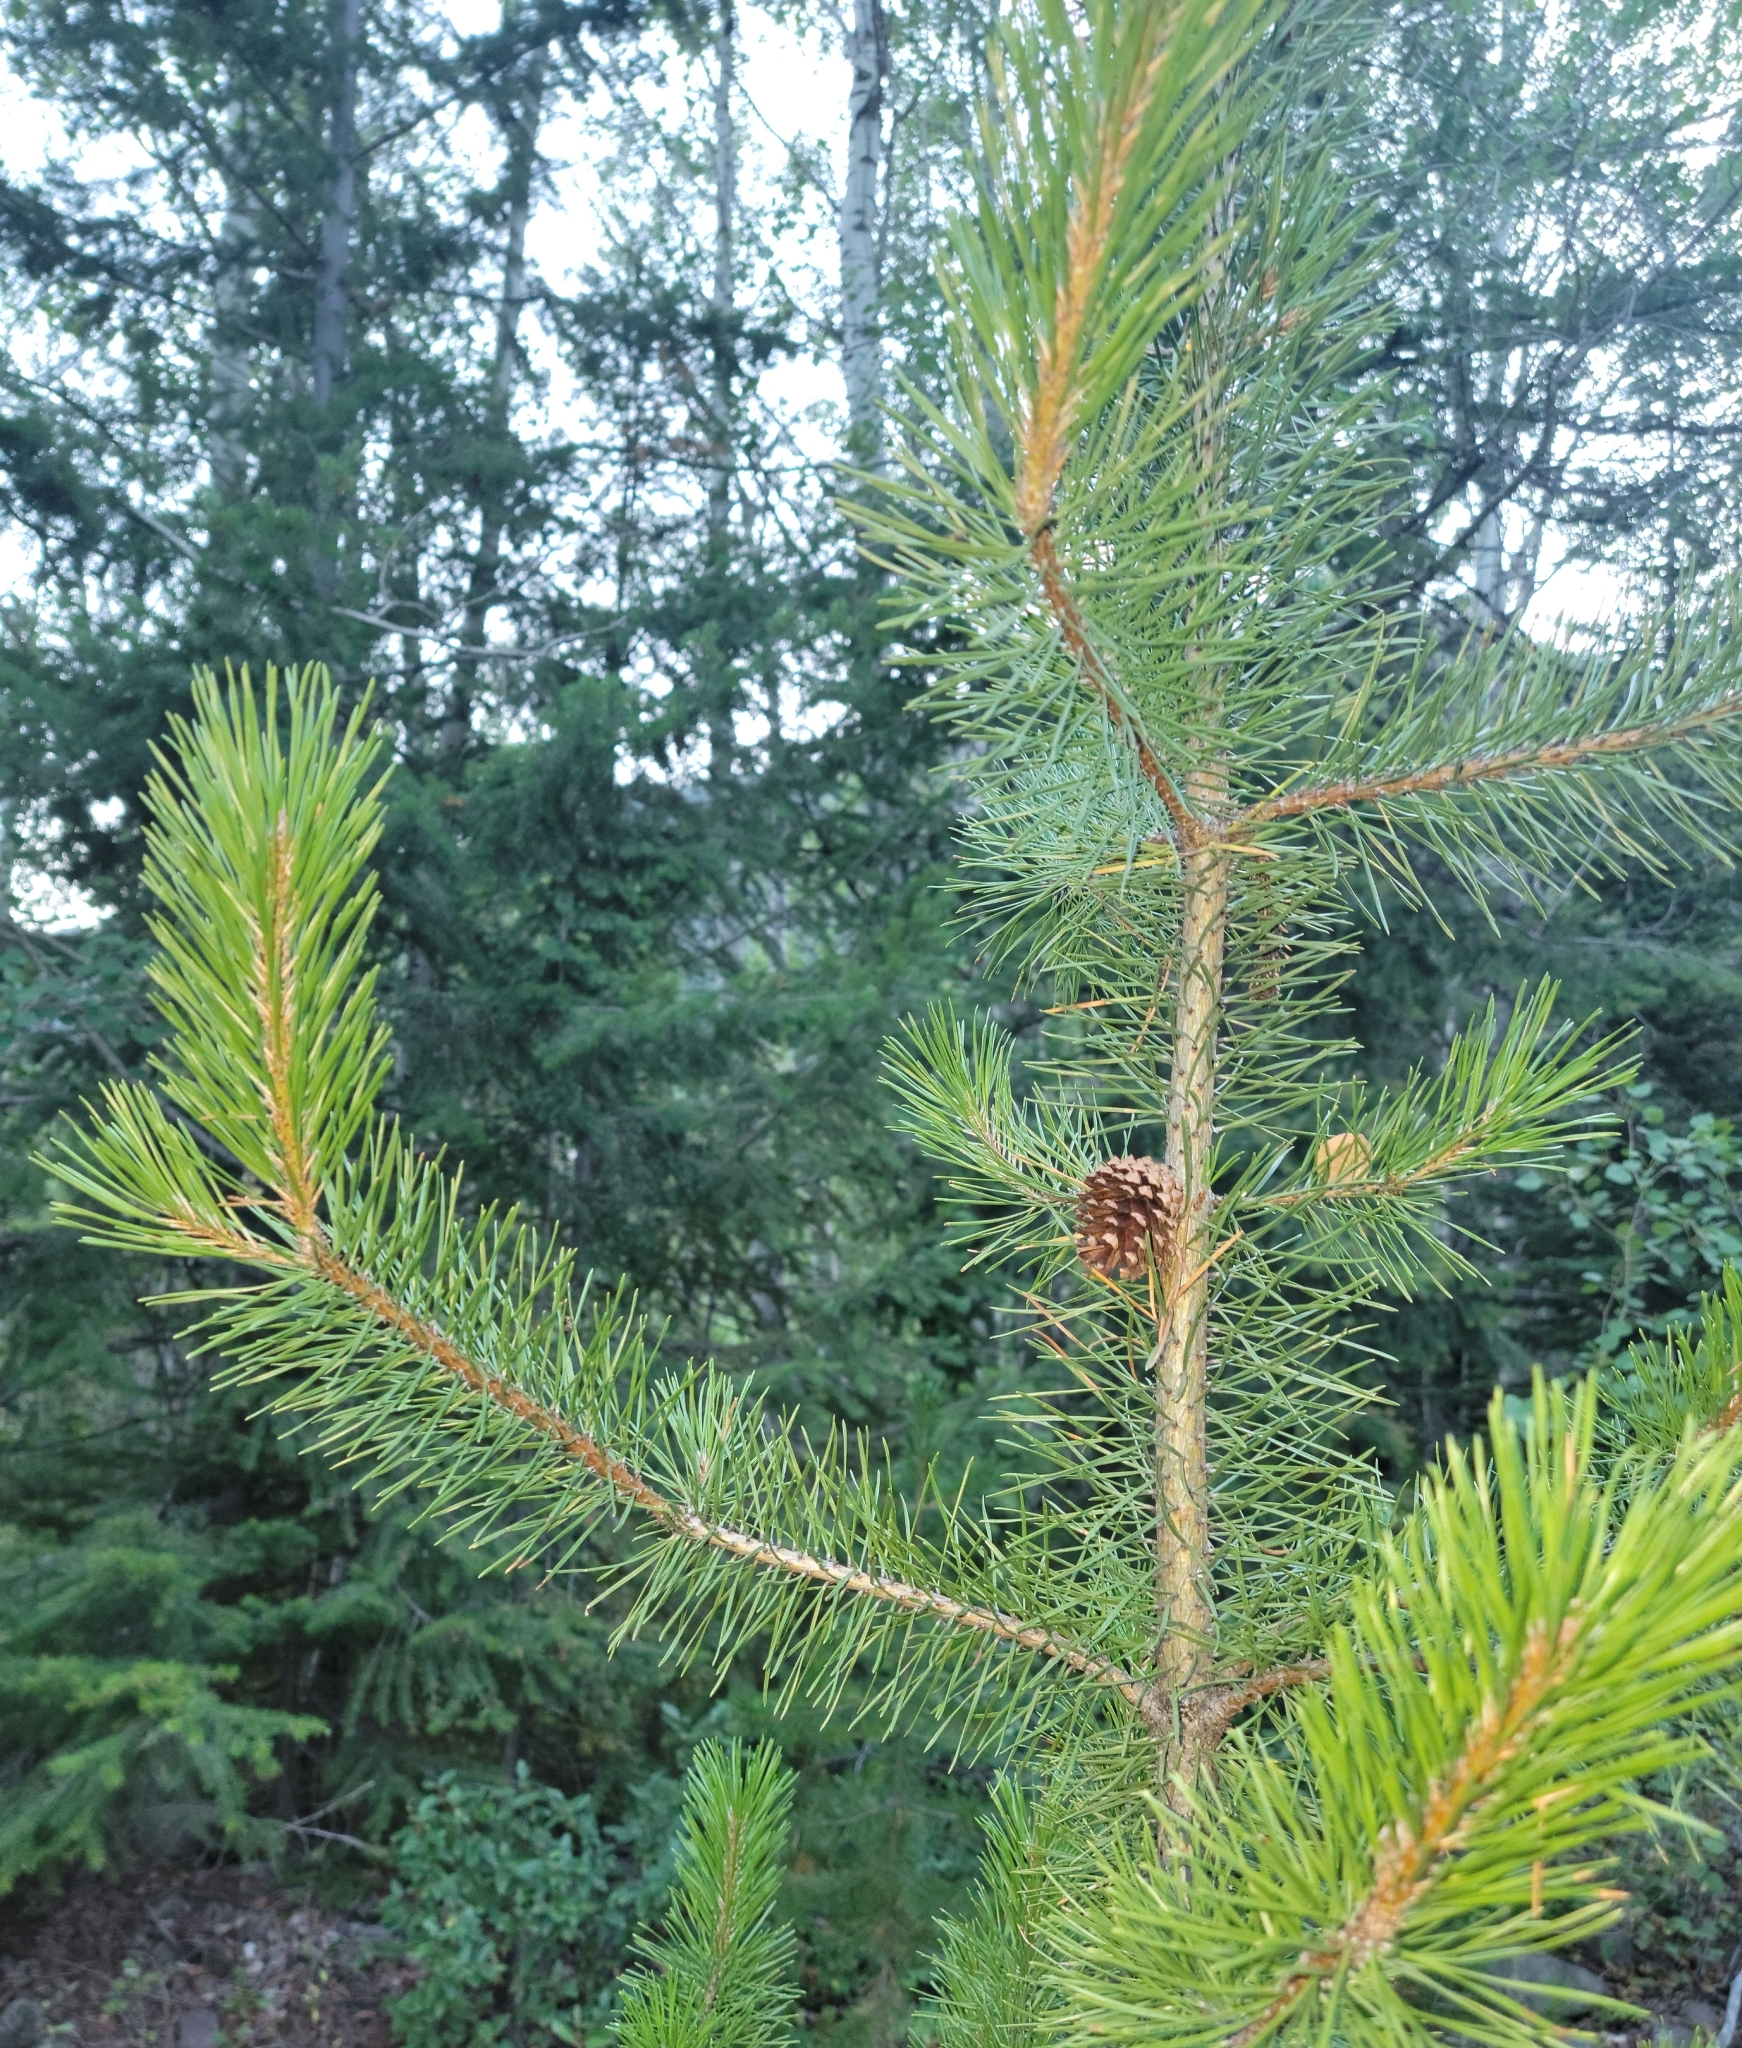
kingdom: Plantae
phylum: Tracheophyta
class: Pinopsida
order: Pinales
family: Pinaceae
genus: Pinus
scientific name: Pinus contorta
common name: Lodgepole pine
